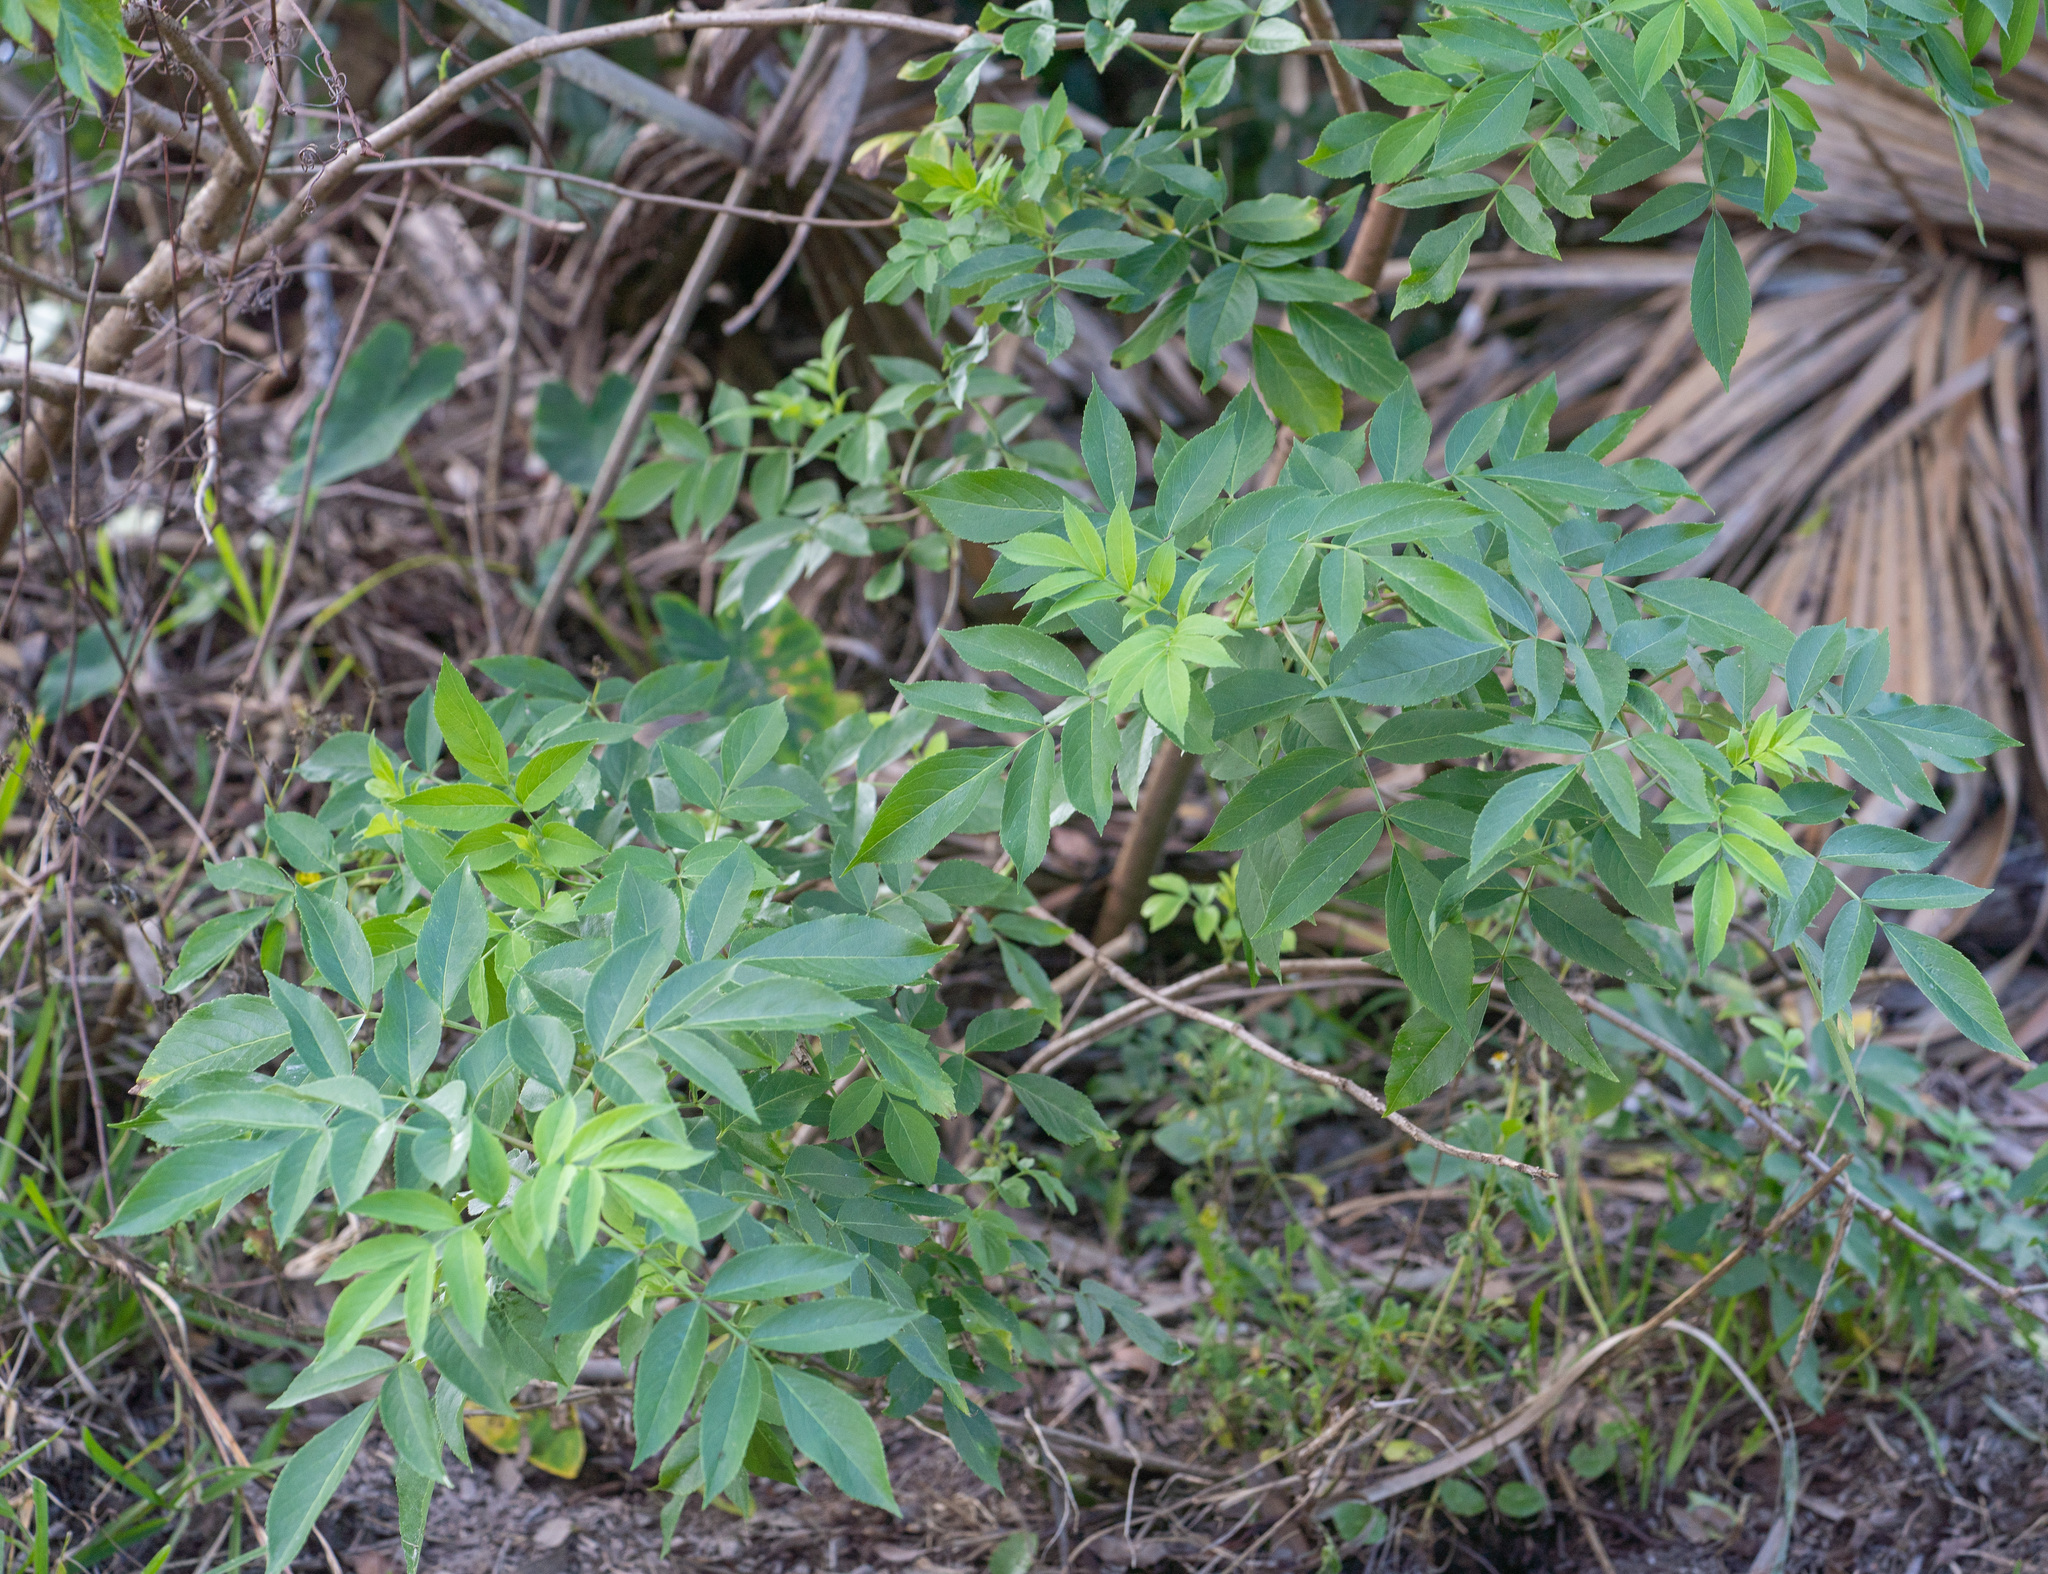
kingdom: Plantae
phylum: Tracheophyta
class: Magnoliopsida
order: Dipsacales
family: Viburnaceae
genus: Sambucus
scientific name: Sambucus canadensis
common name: American elder
